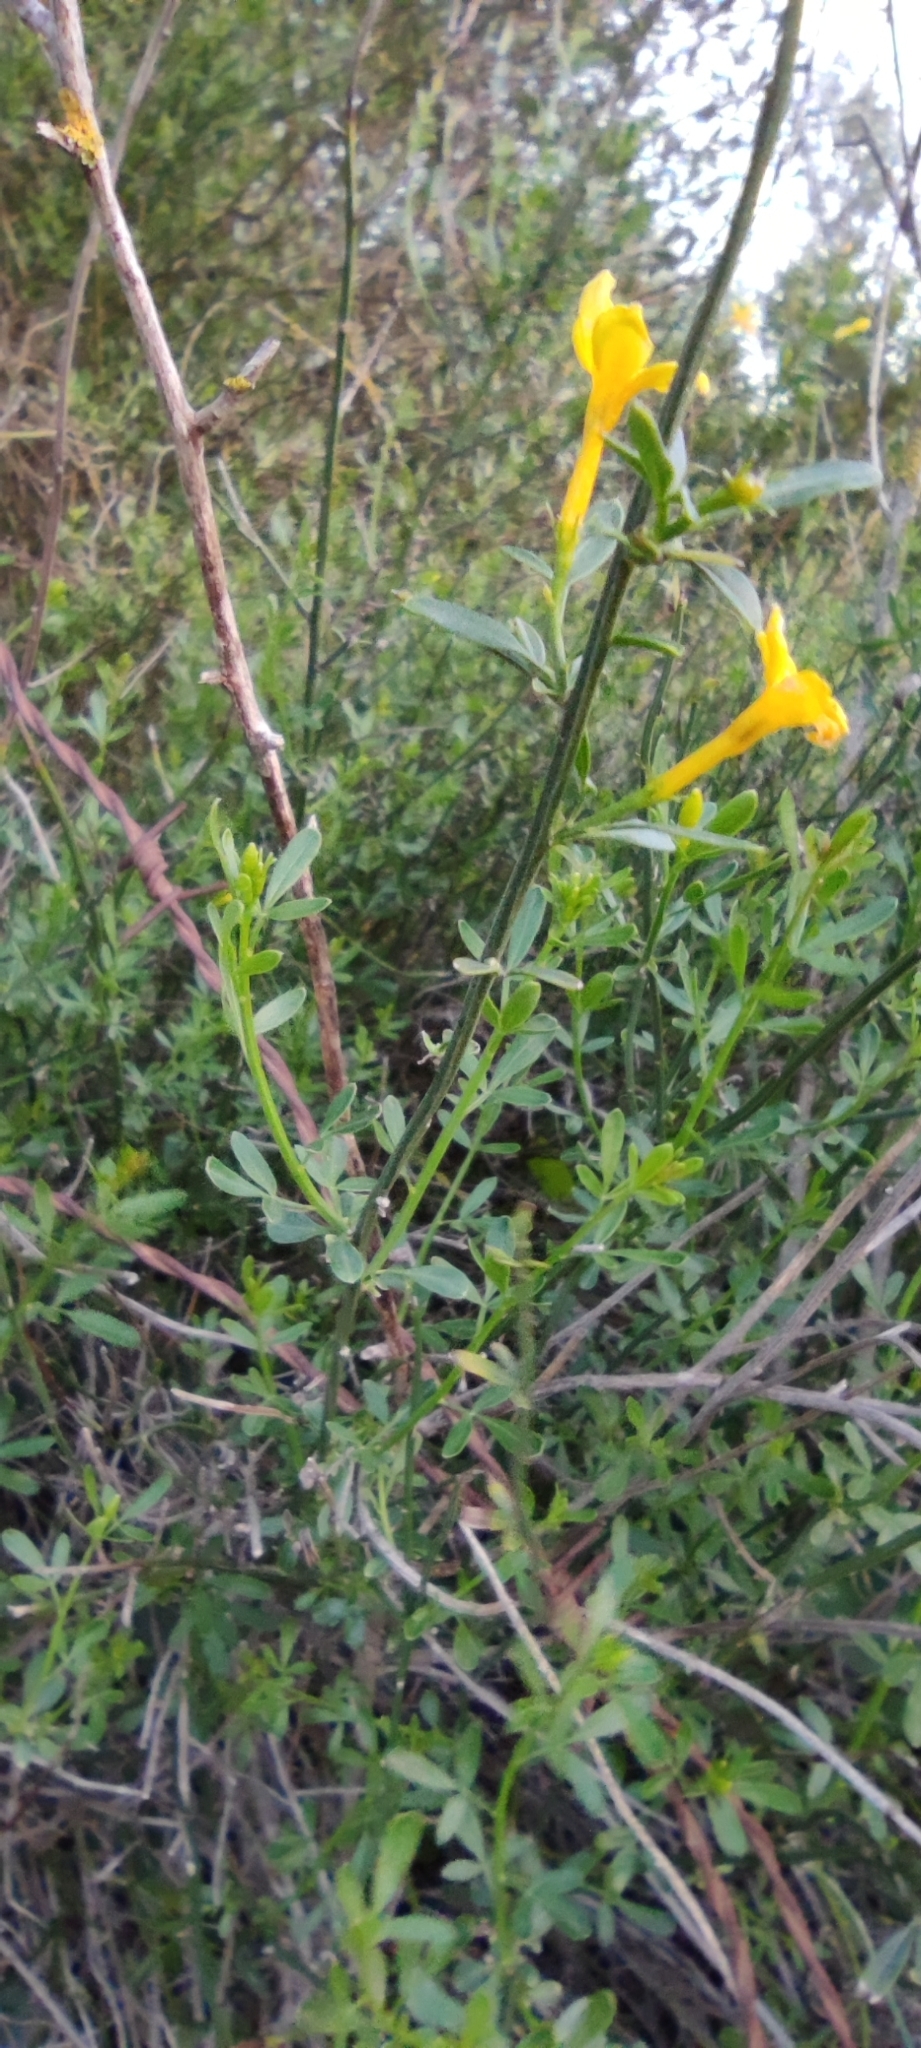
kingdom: Plantae
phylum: Tracheophyta
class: Magnoliopsida
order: Lamiales
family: Oleaceae
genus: Chrysojasminum
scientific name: Chrysojasminum fruticans
